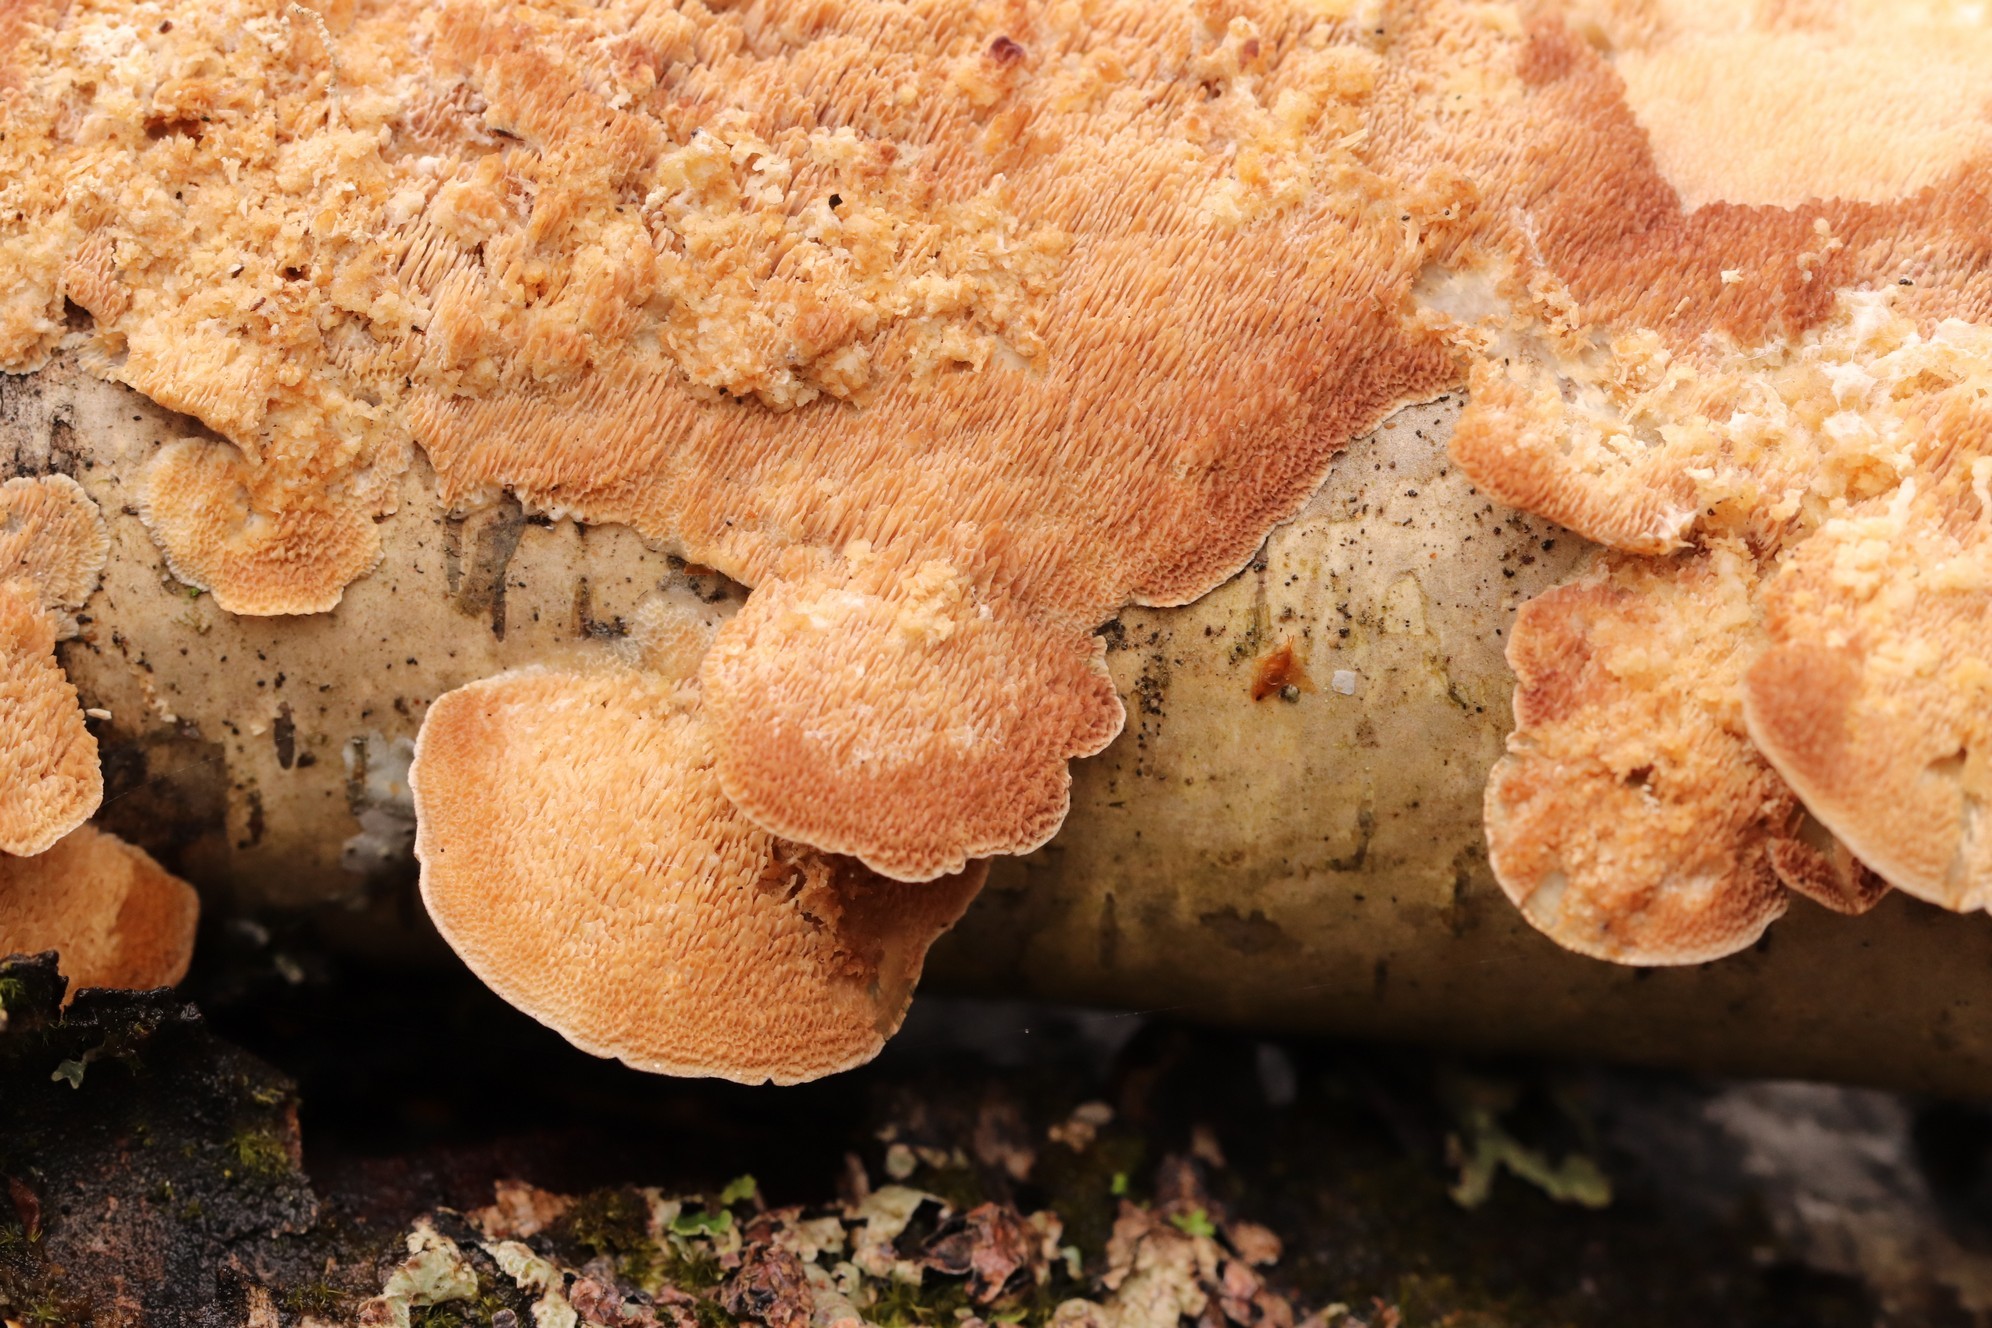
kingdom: Fungi
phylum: Basidiomycota
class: Agaricomycetes
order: Hymenochaetales
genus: Trichaptum
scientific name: Trichaptum biforme
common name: Violet-toothed polypore
